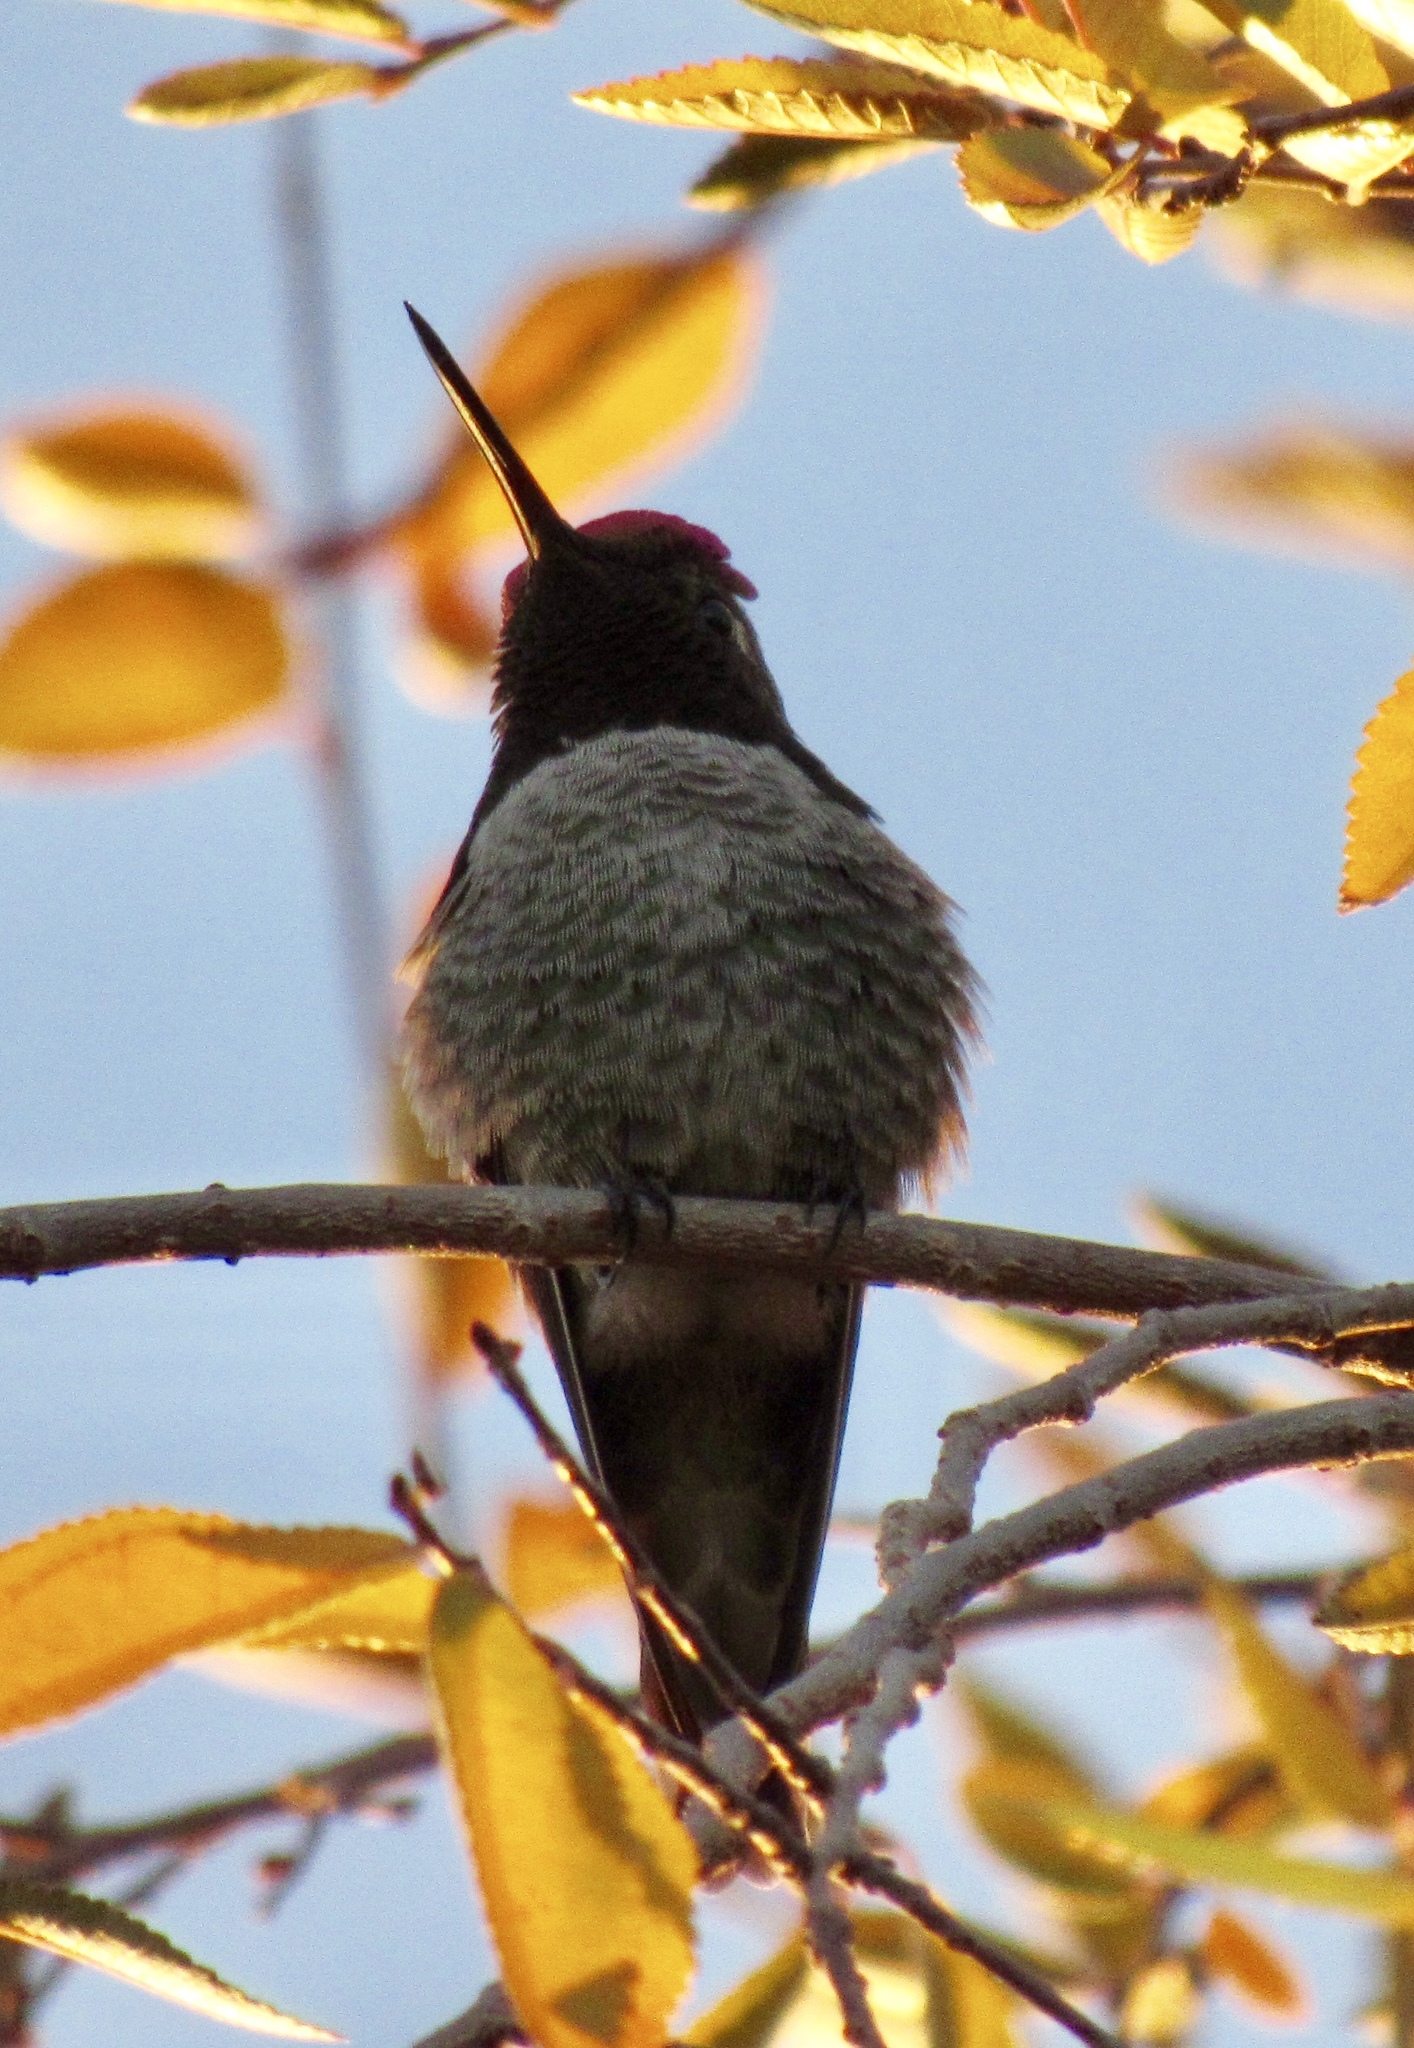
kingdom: Animalia
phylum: Chordata
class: Aves
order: Apodiformes
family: Trochilidae
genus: Calypte
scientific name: Calypte anna
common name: Anna's hummingbird
